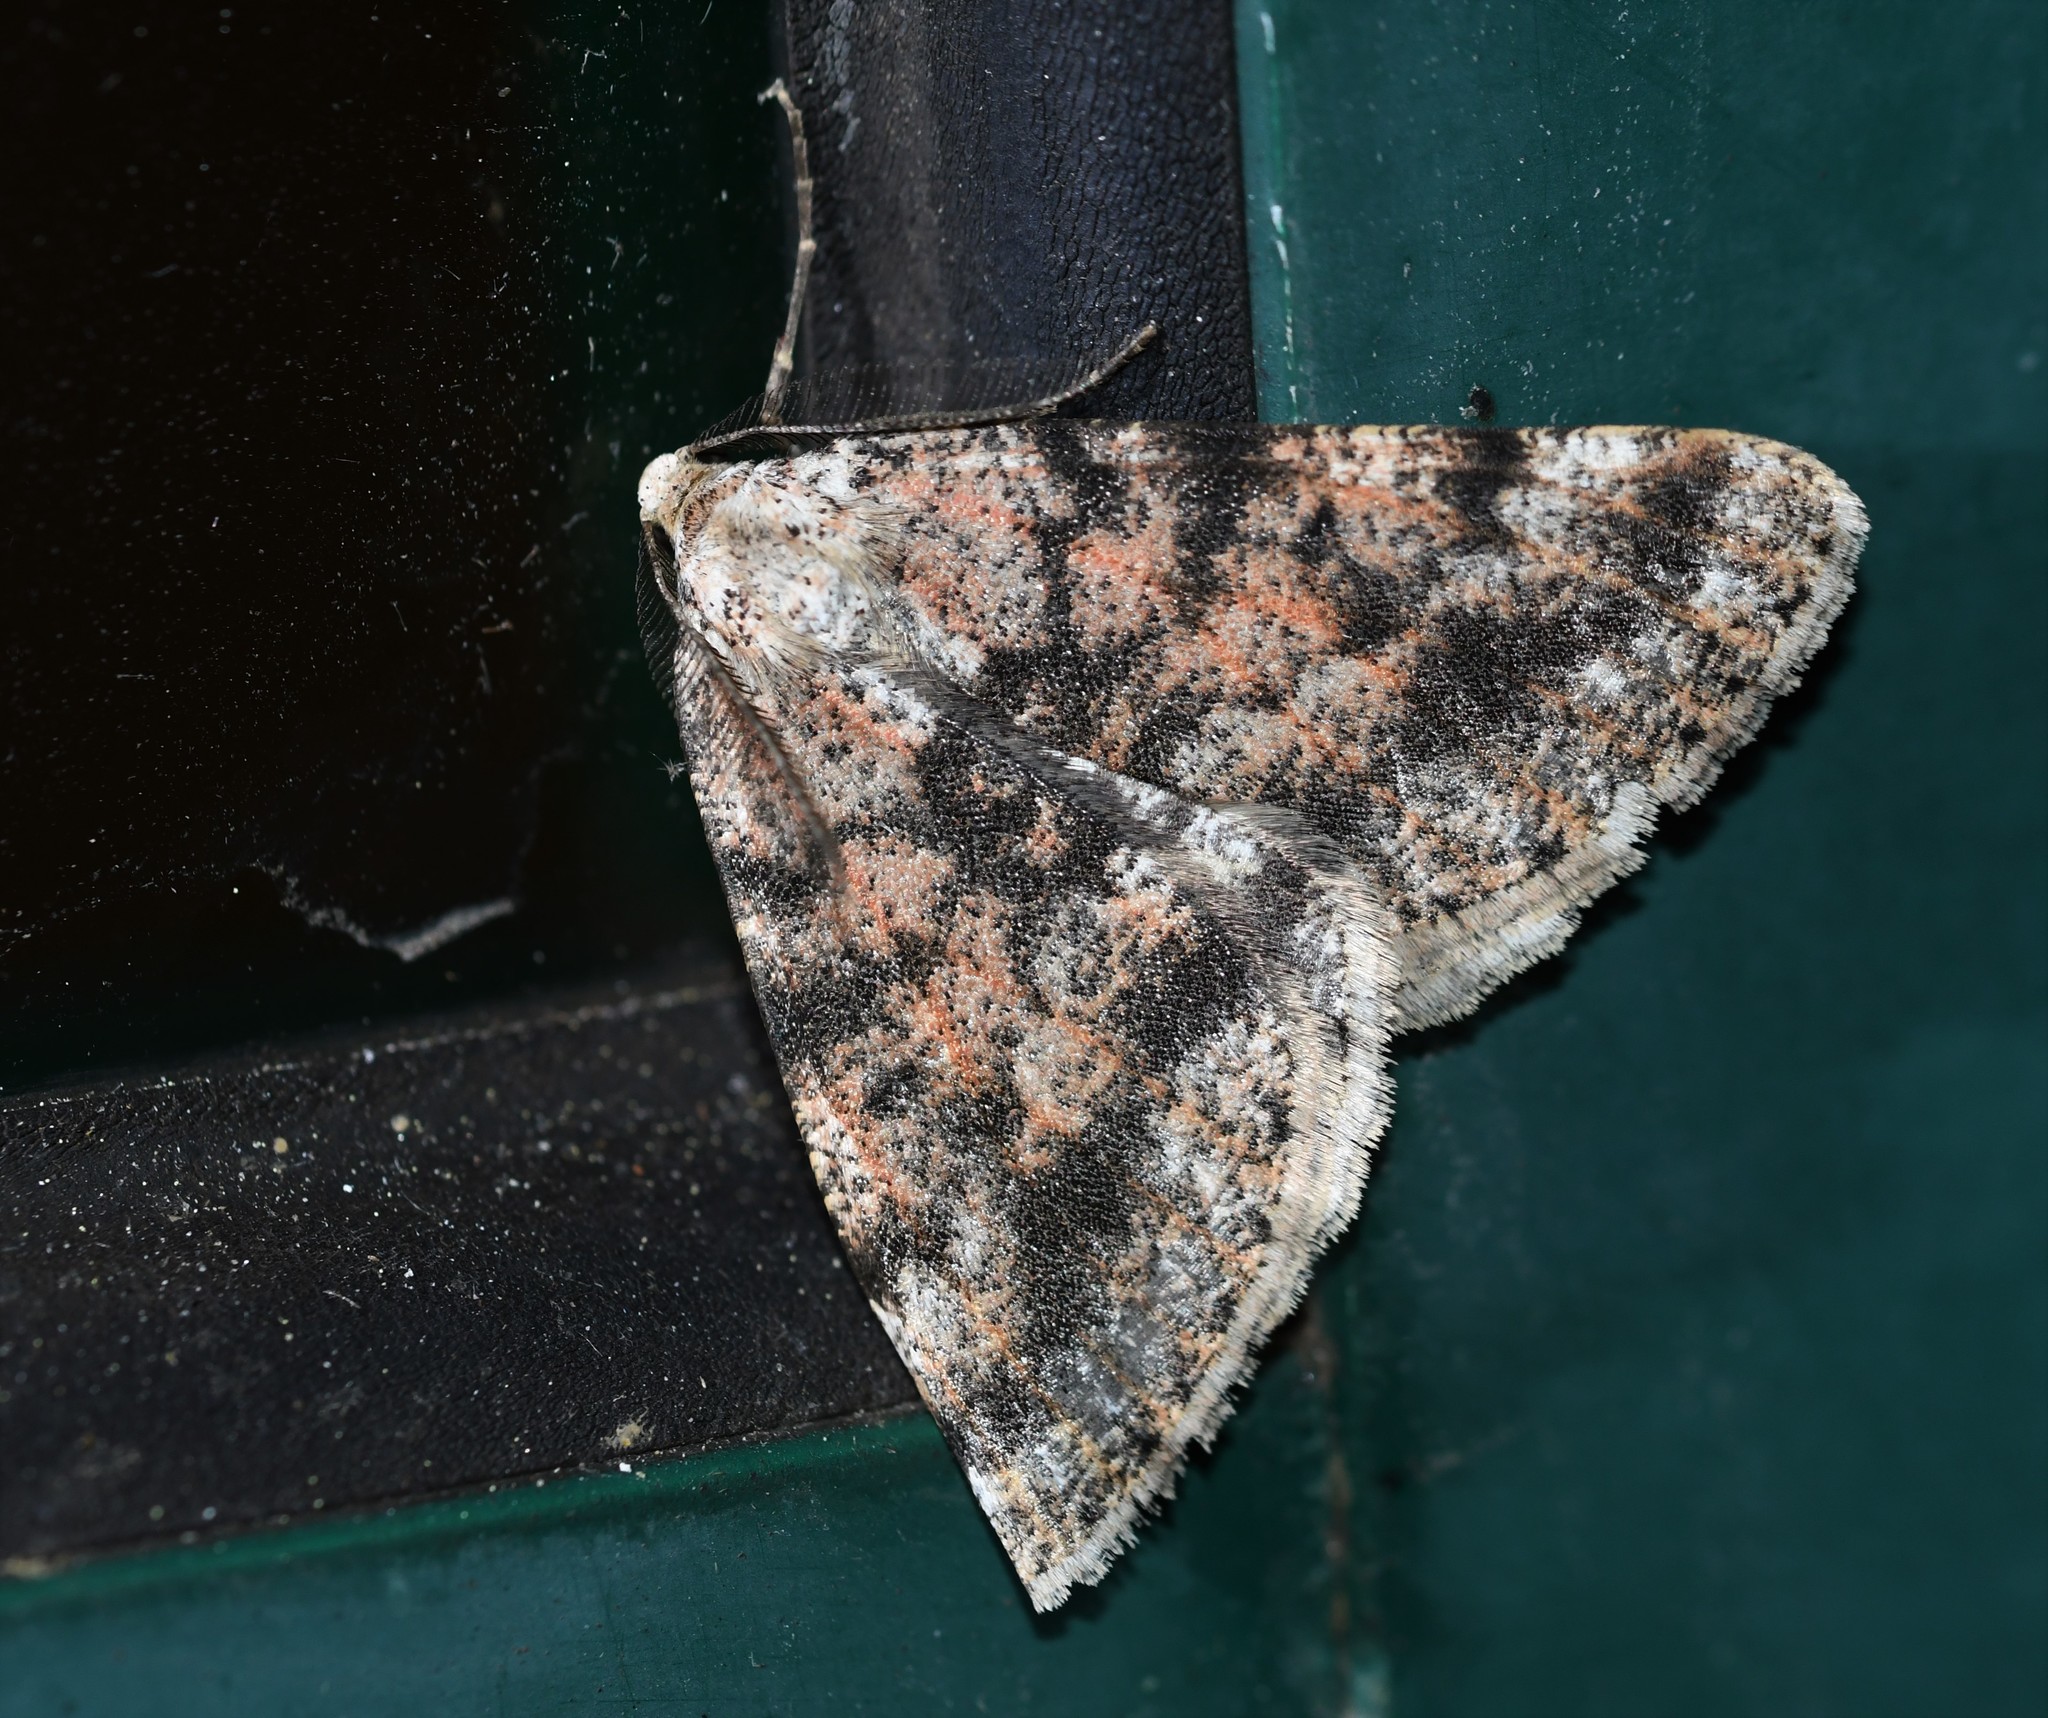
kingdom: Animalia
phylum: Arthropoda
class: Insecta
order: Lepidoptera
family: Geometridae
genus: Isturgia
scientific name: Isturgia miniosaria
